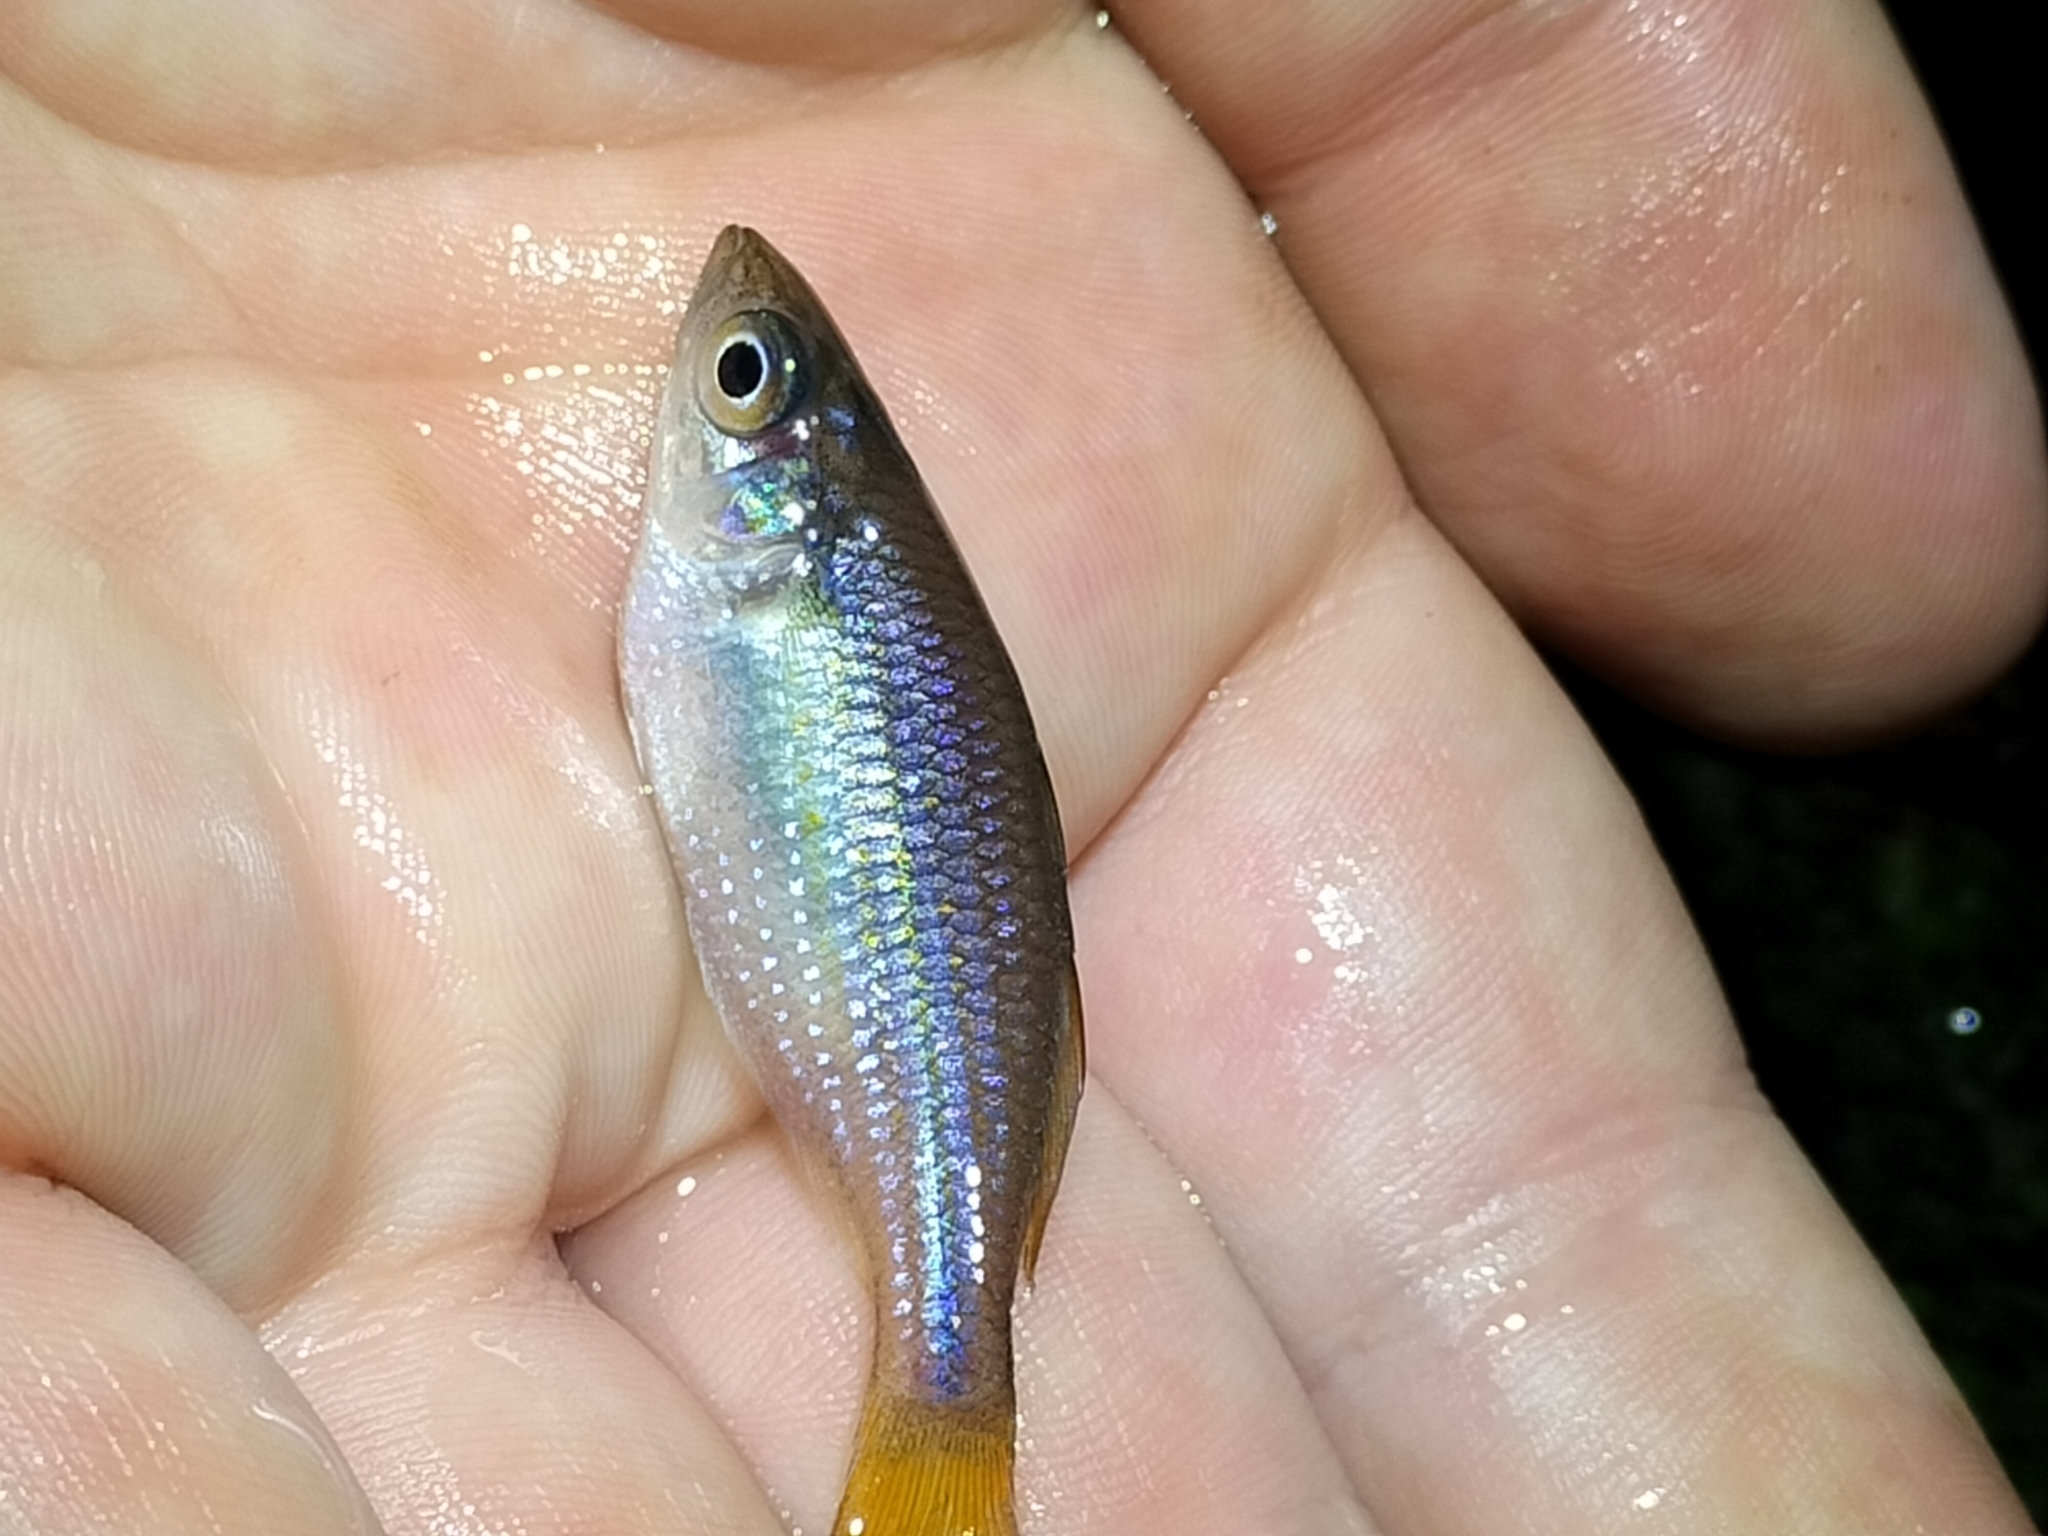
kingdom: Animalia
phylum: Chordata
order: Atheriniformes
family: Melanotaeniidae
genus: Melanotaenia
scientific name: Melanotaenia splendida
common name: Checkered rainbowfish
